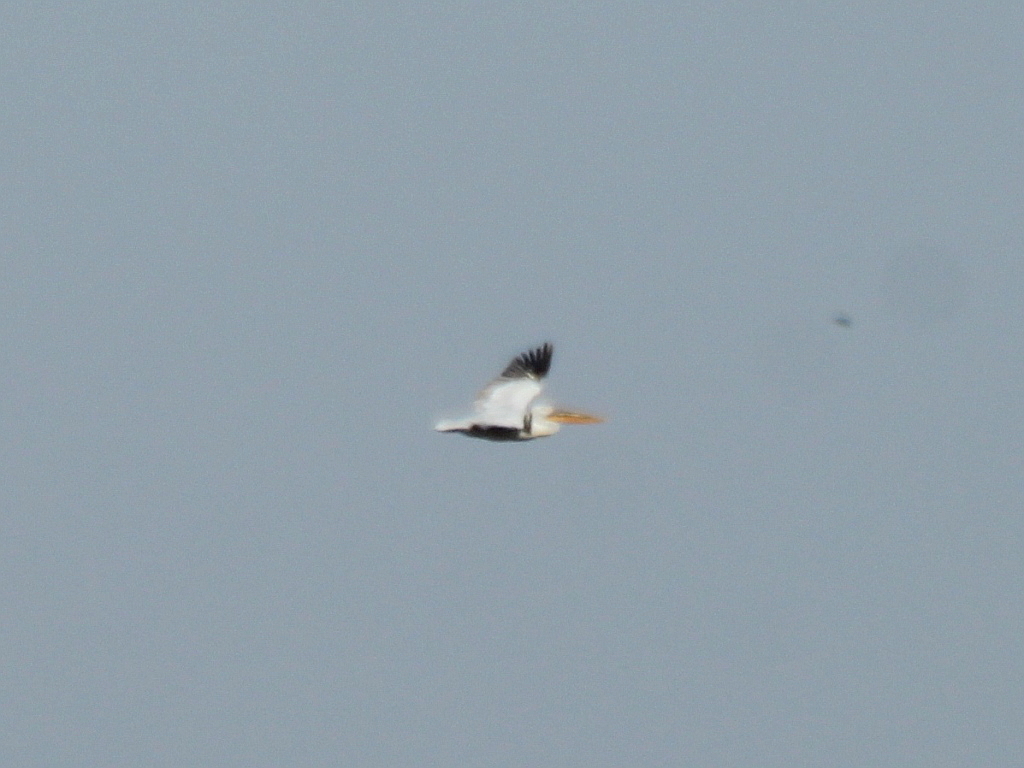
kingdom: Animalia
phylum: Chordata
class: Aves
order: Pelecaniformes
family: Pelecanidae
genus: Pelecanus
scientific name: Pelecanus crispus
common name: Dalmatian pelican
